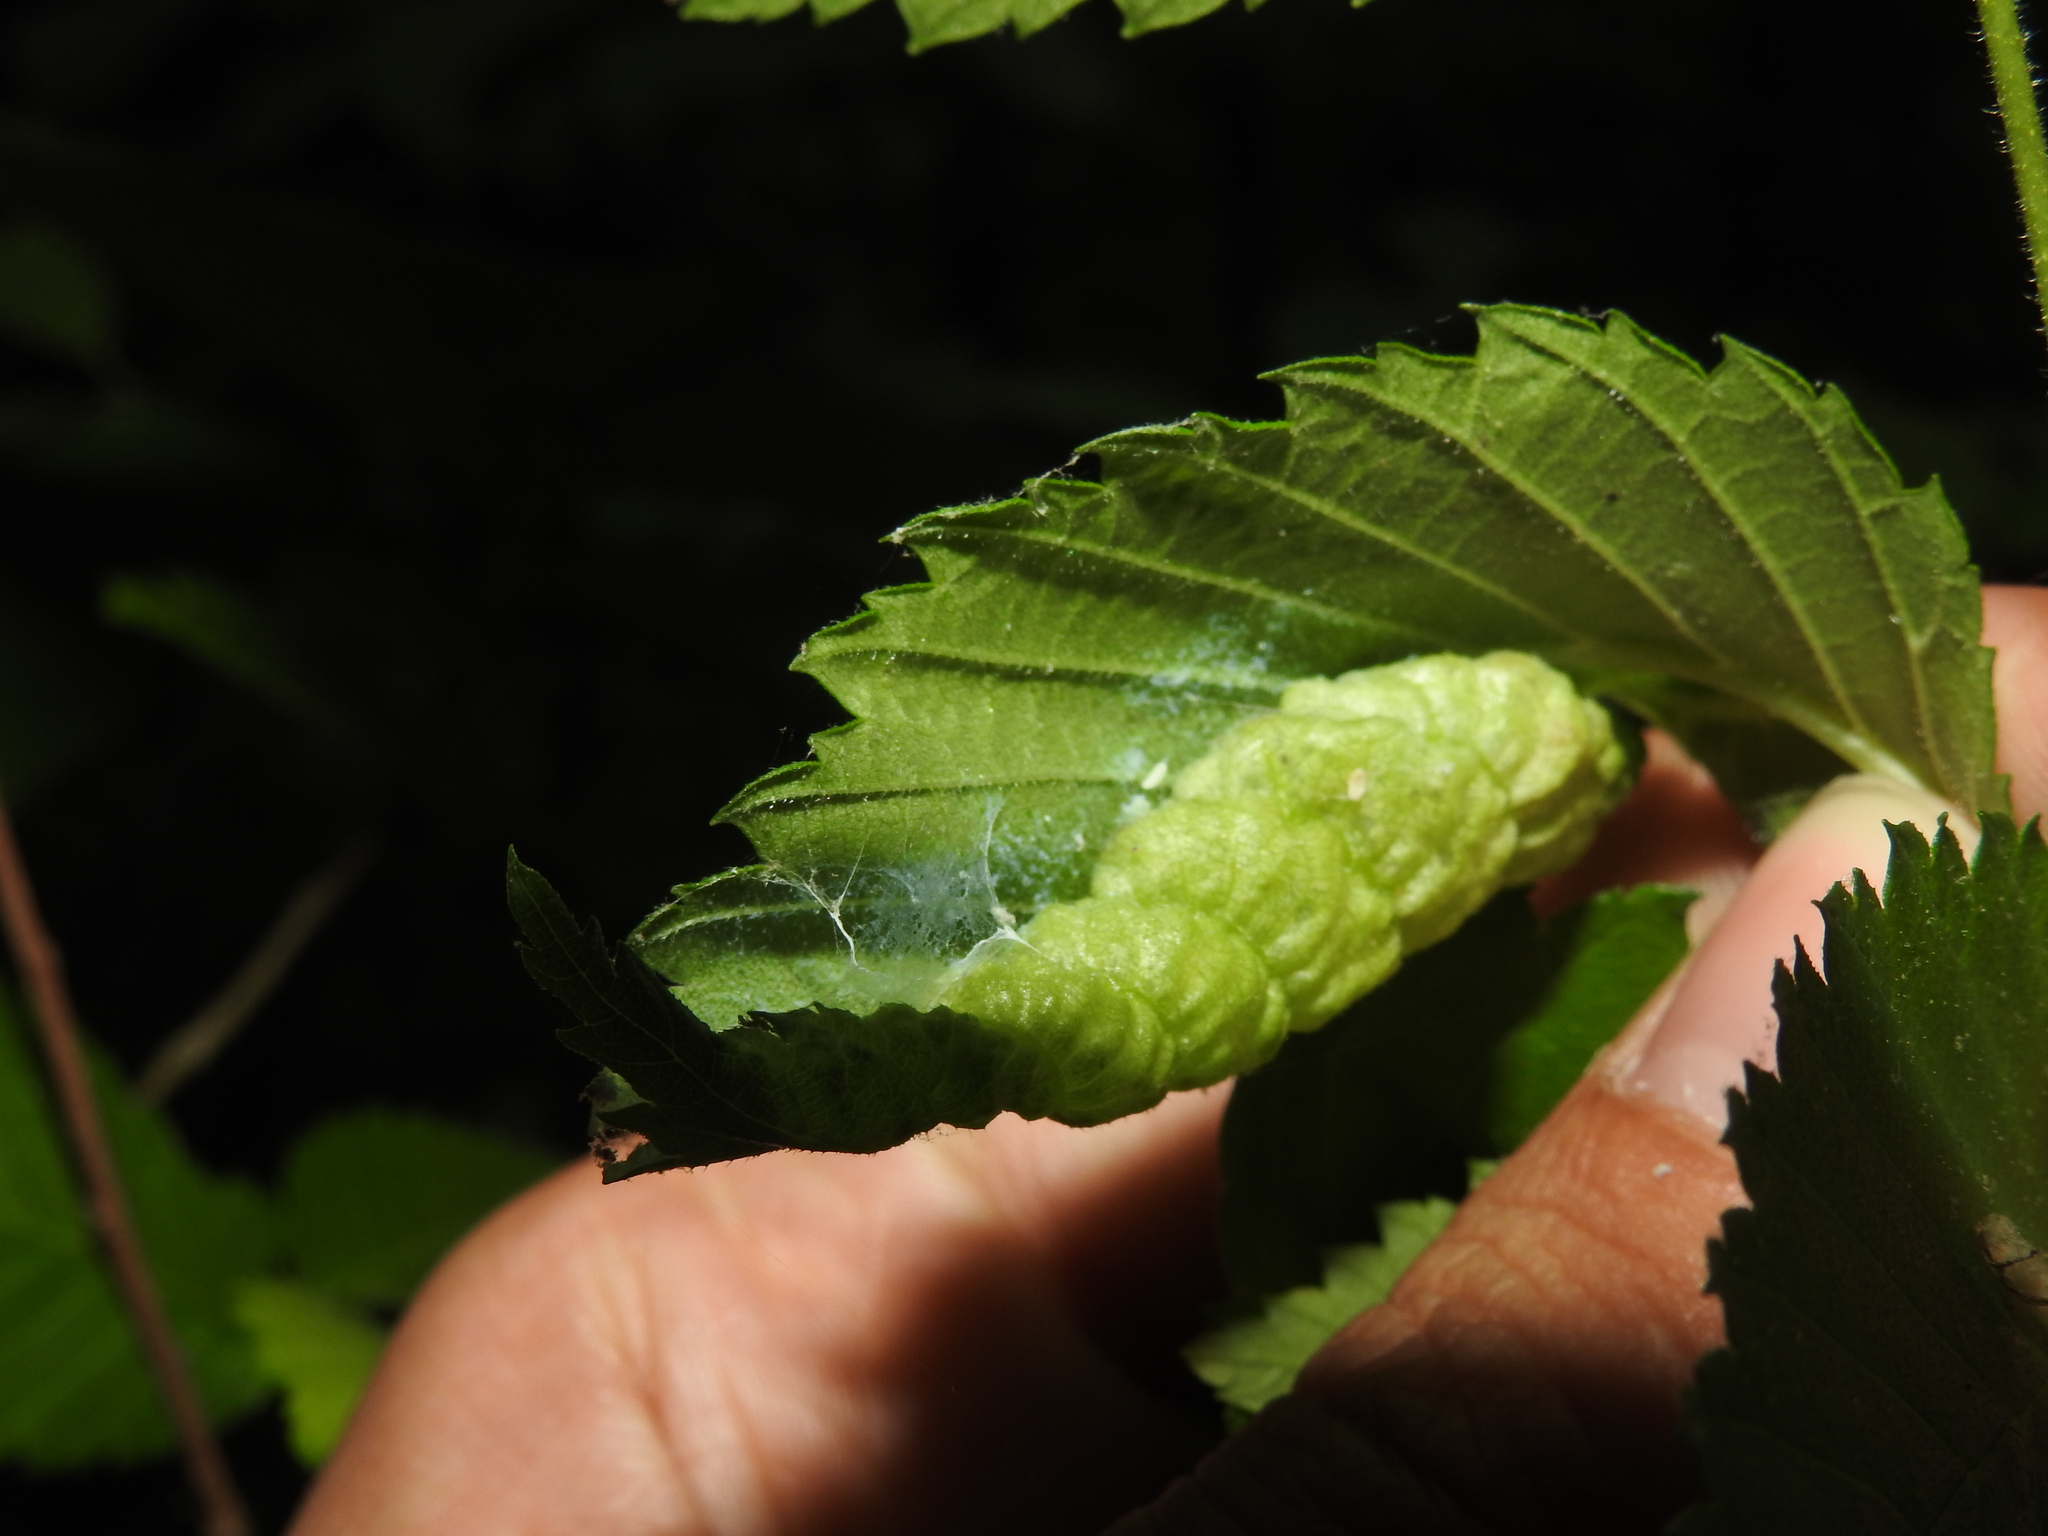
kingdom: Animalia
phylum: Arthropoda
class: Insecta
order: Hemiptera
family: Aphididae
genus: Eriosoma
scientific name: Eriosoma americanum
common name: Woolly elm aphid
